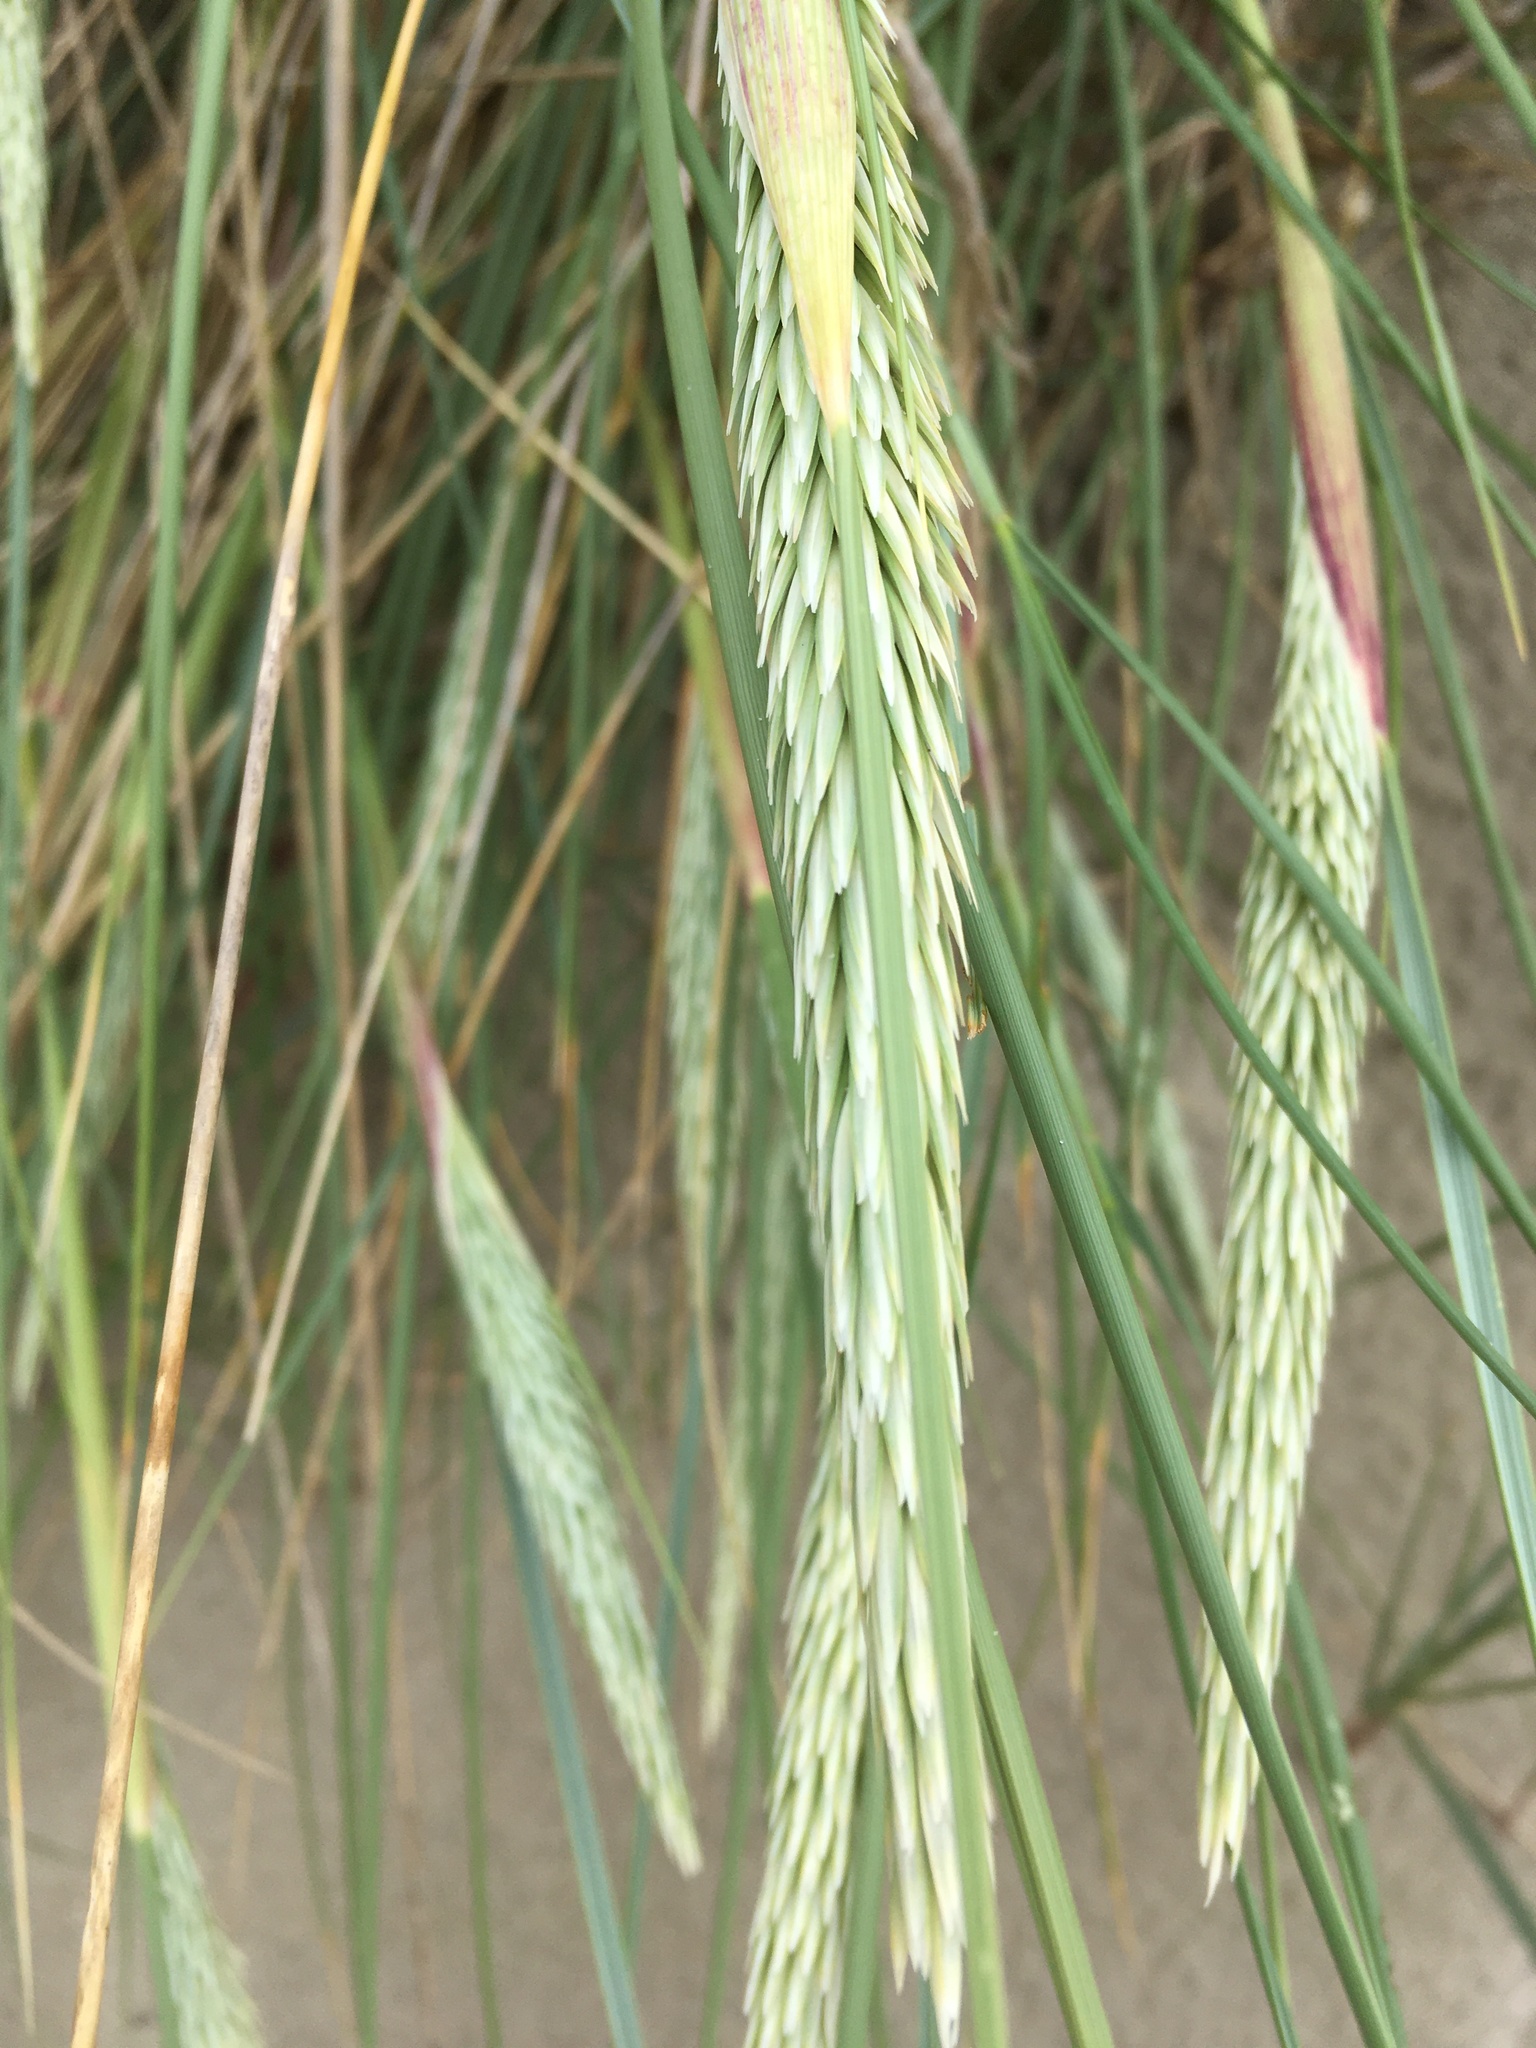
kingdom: Plantae
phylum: Tracheophyta
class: Liliopsida
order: Poales
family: Poaceae
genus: Calamagrostis
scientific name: Calamagrostis arenaria
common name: European beachgrass
